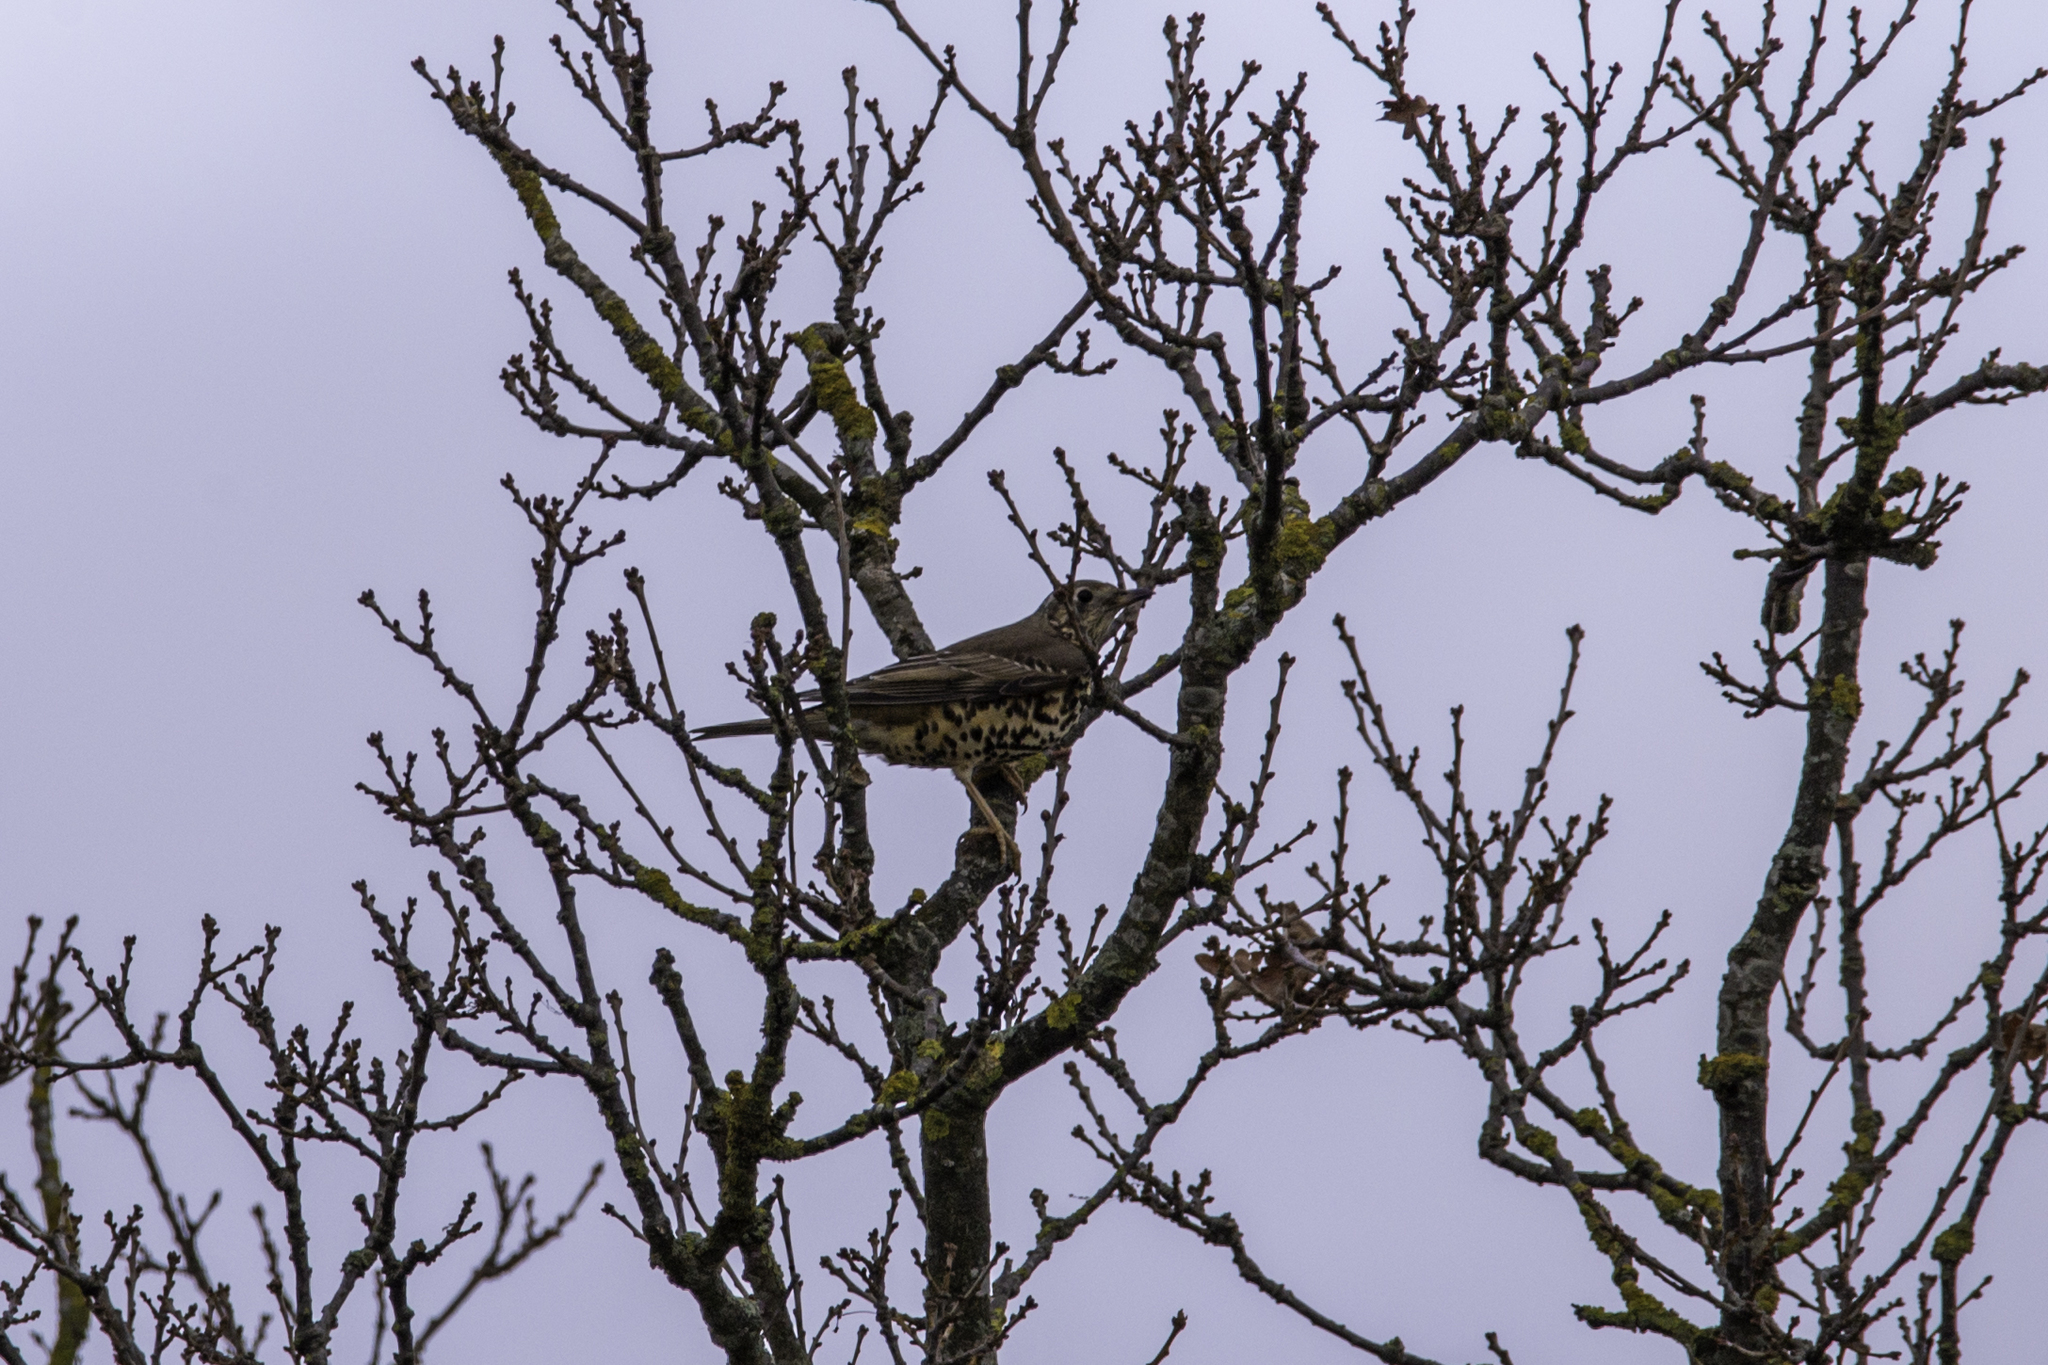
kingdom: Animalia
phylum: Chordata
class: Aves
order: Passeriformes
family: Turdidae
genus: Turdus
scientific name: Turdus viscivorus
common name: Mistle thrush
